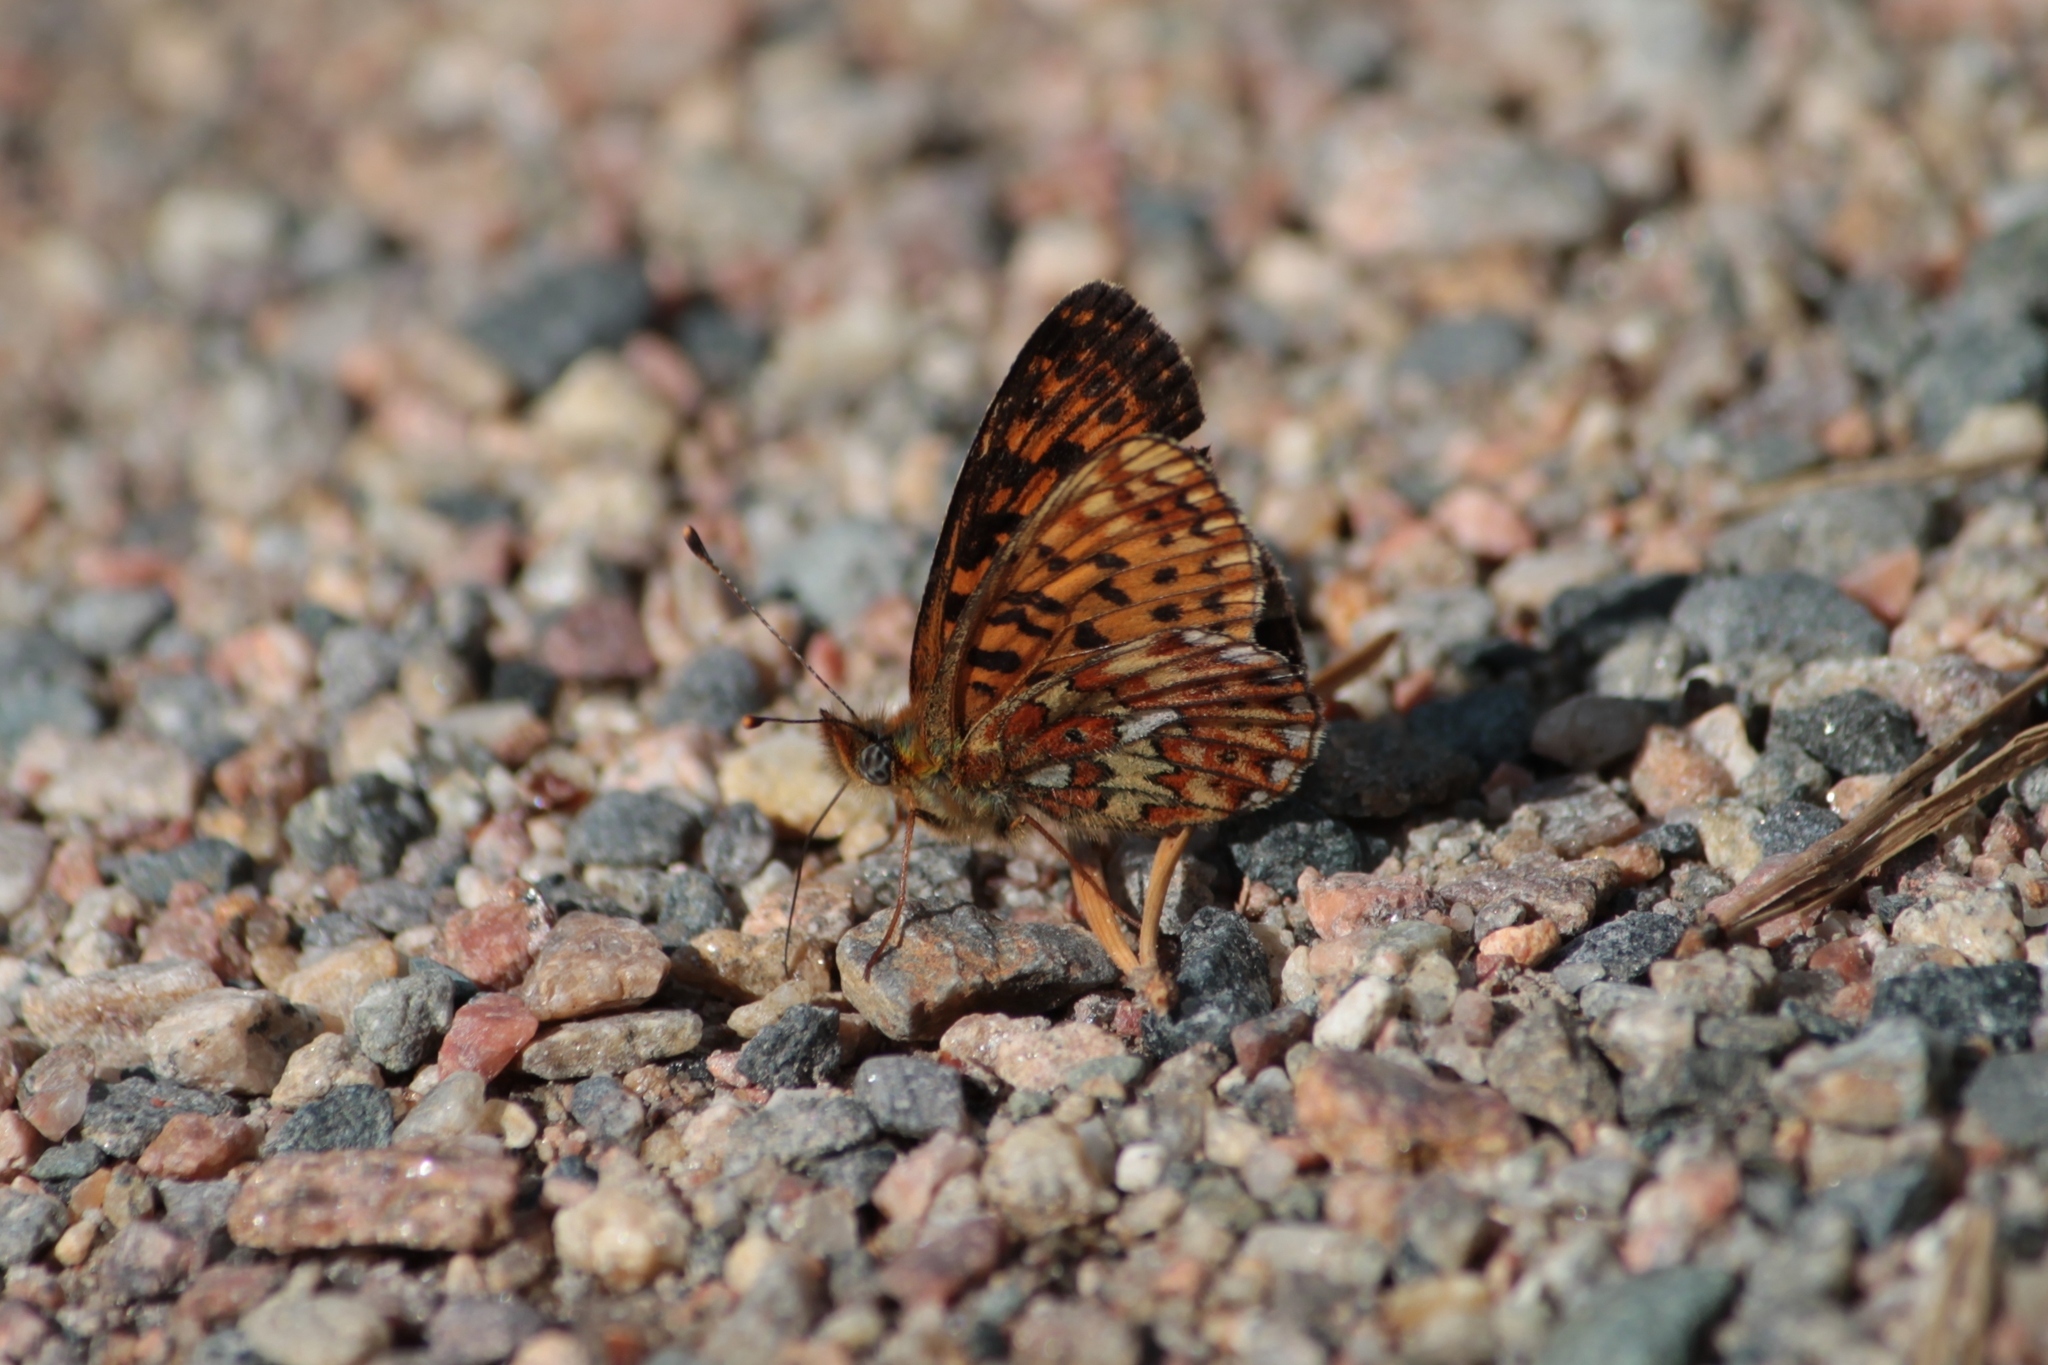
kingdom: Animalia
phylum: Arthropoda
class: Insecta
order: Lepidoptera
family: Nymphalidae
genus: Clossiana
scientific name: Clossiana euphrosyne
